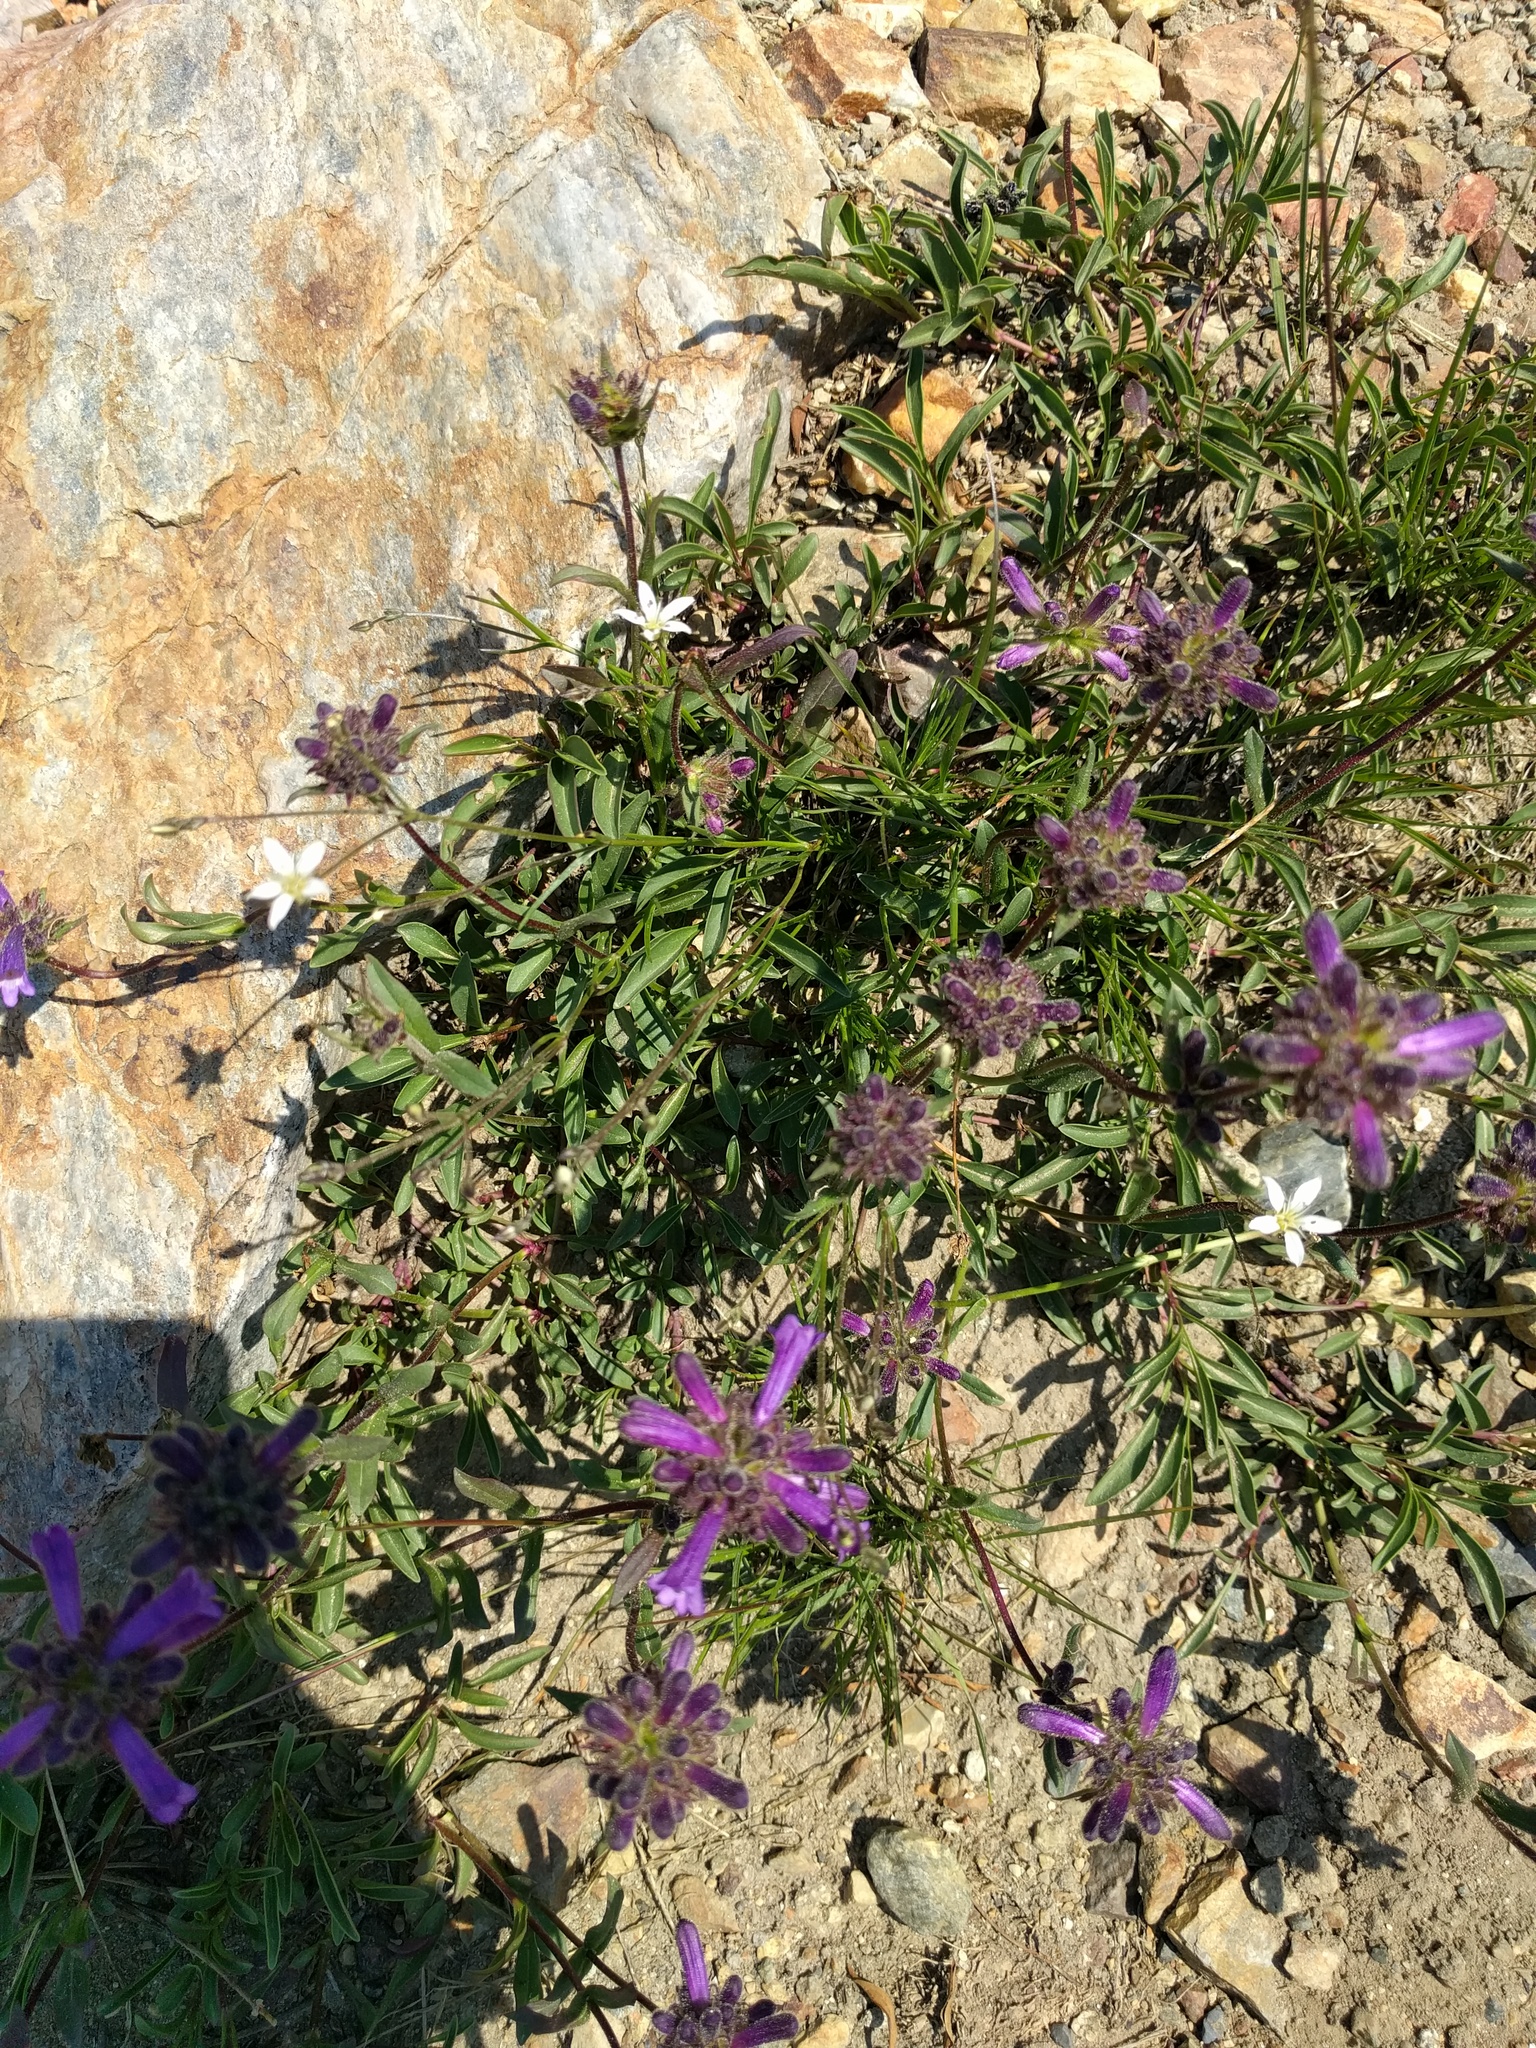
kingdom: Plantae
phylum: Tracheophyta
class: Magnoliopsida
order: Lamiales
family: Plantaginaceae
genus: Penstemon
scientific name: Penstemon heterodoxus
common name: Sierran penstemon
